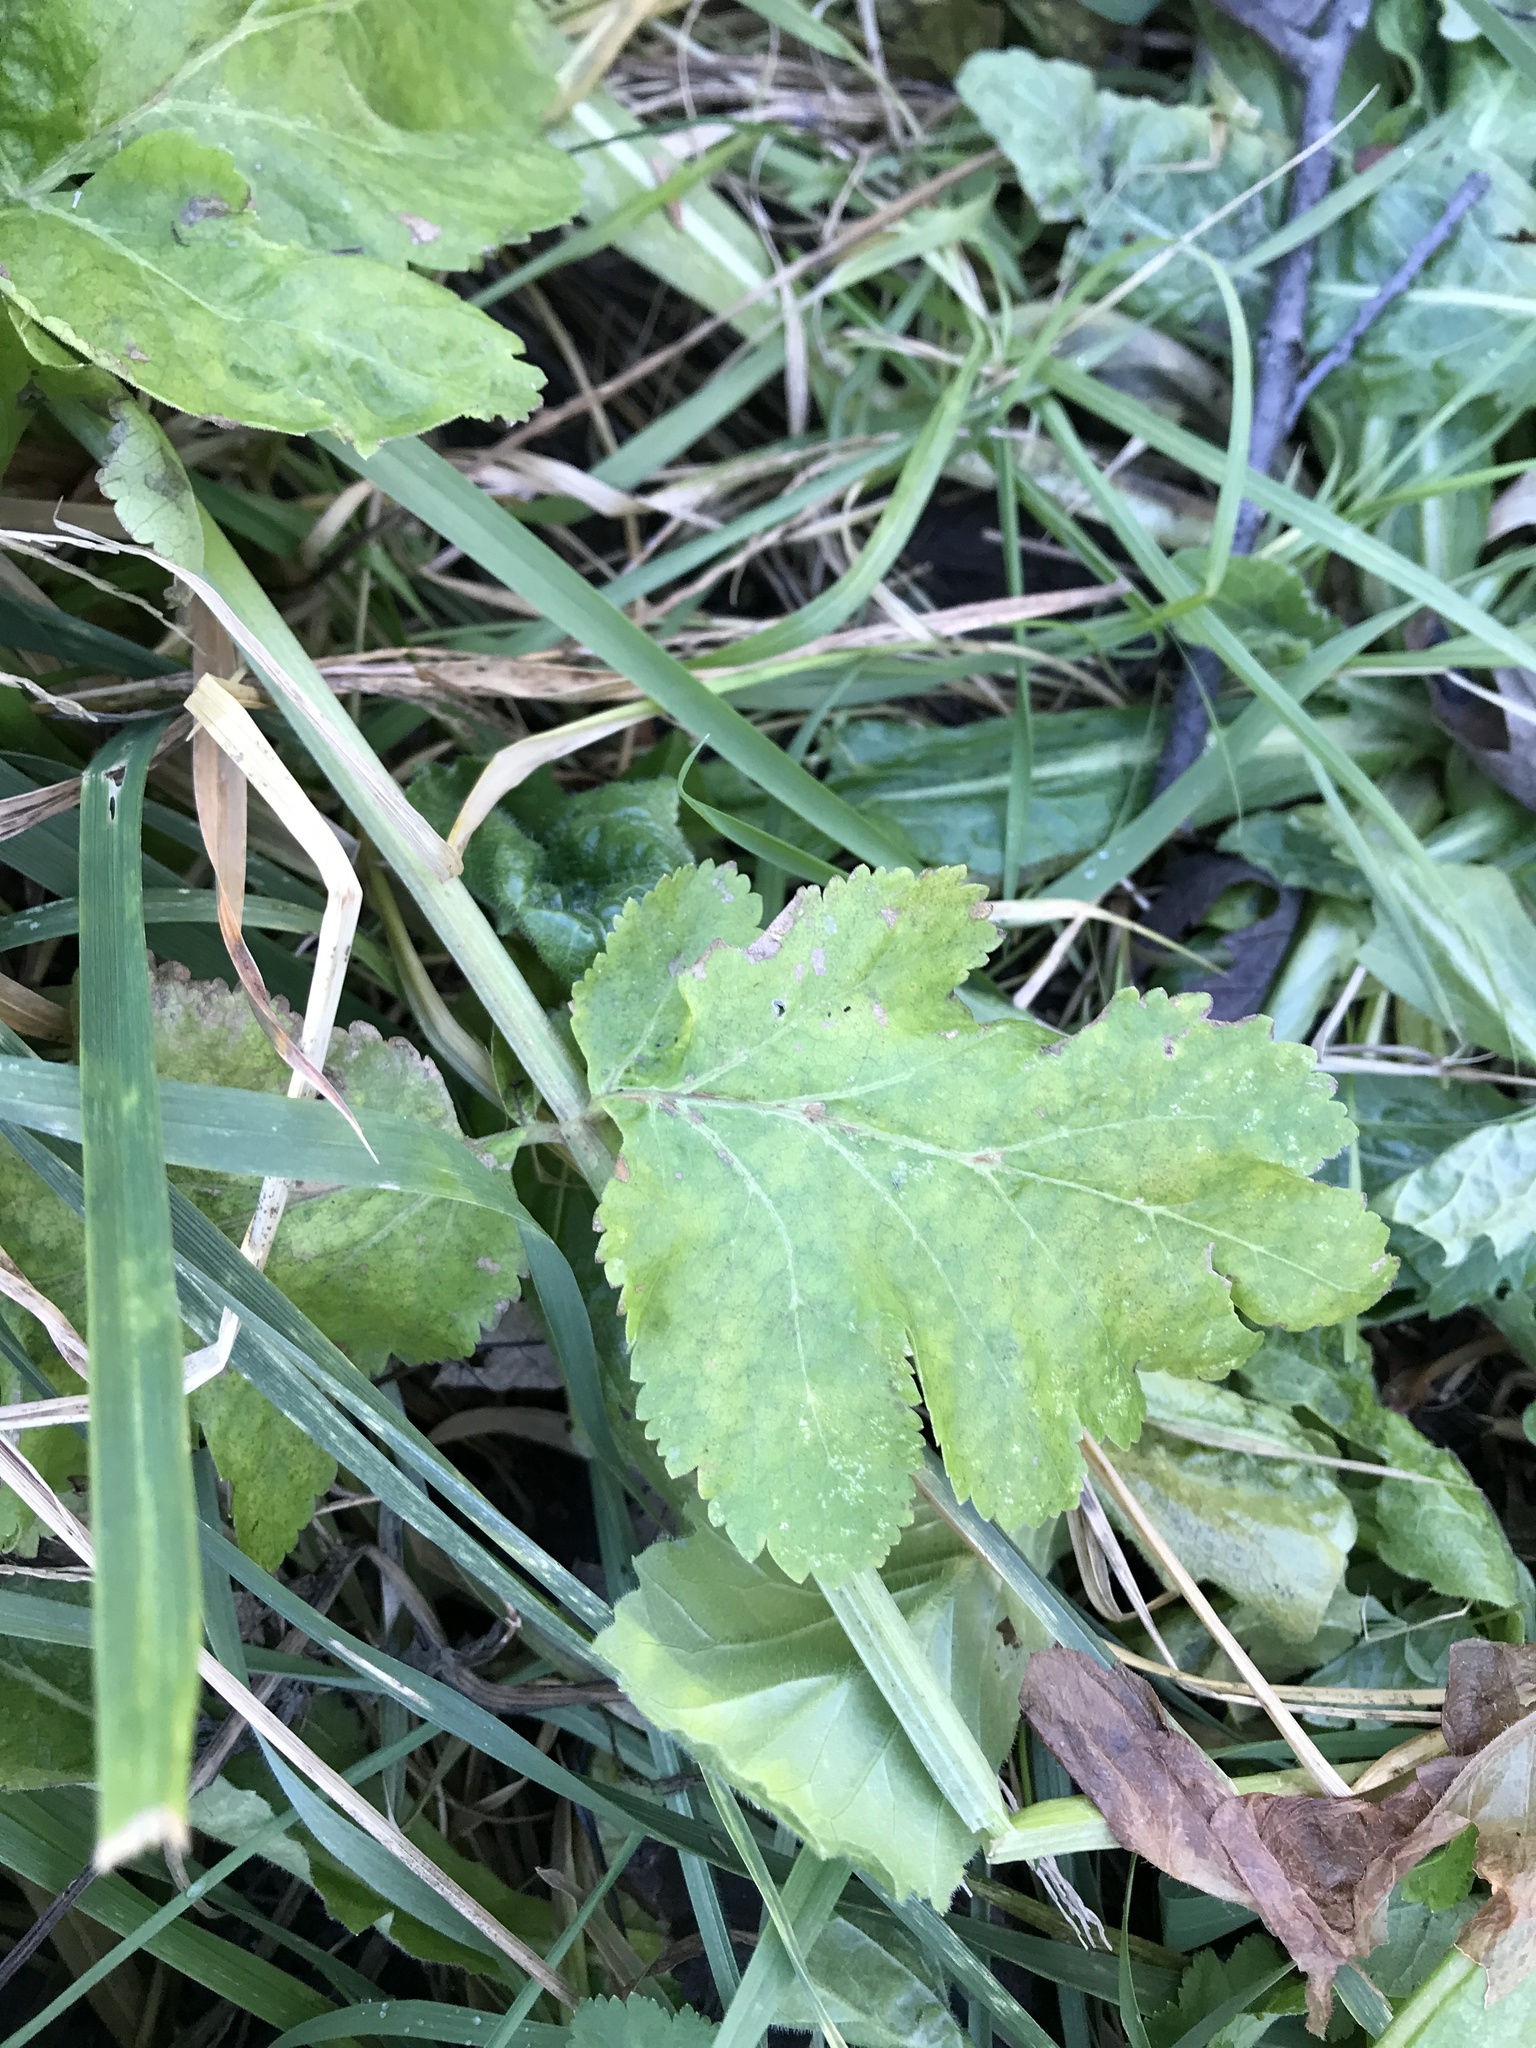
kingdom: Plantae
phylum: Tracheophyta
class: Magnoliopsida
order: Apiales
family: Apiaceae
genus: Pastinaca
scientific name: Pastinaca sativa
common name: Wild parsnip
